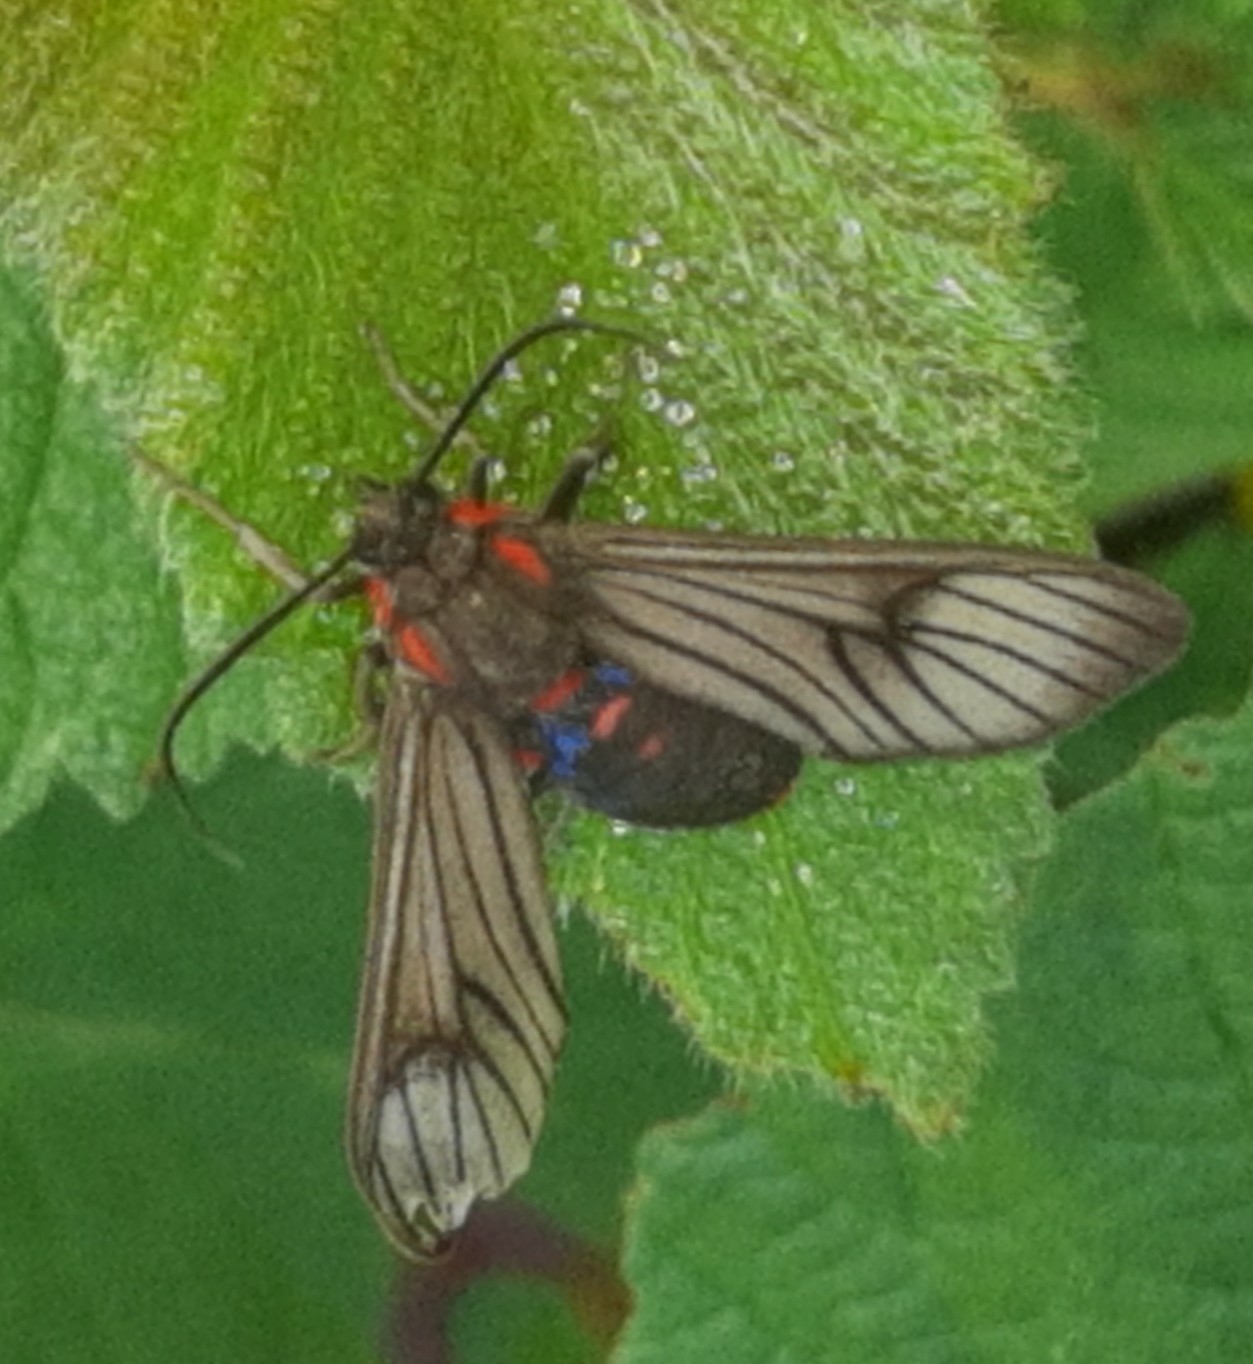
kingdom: Animalia
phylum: Arthropoda
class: Insecta
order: Lepidoptera
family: Erebidae
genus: Saurita
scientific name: Saurita nigripalpia
